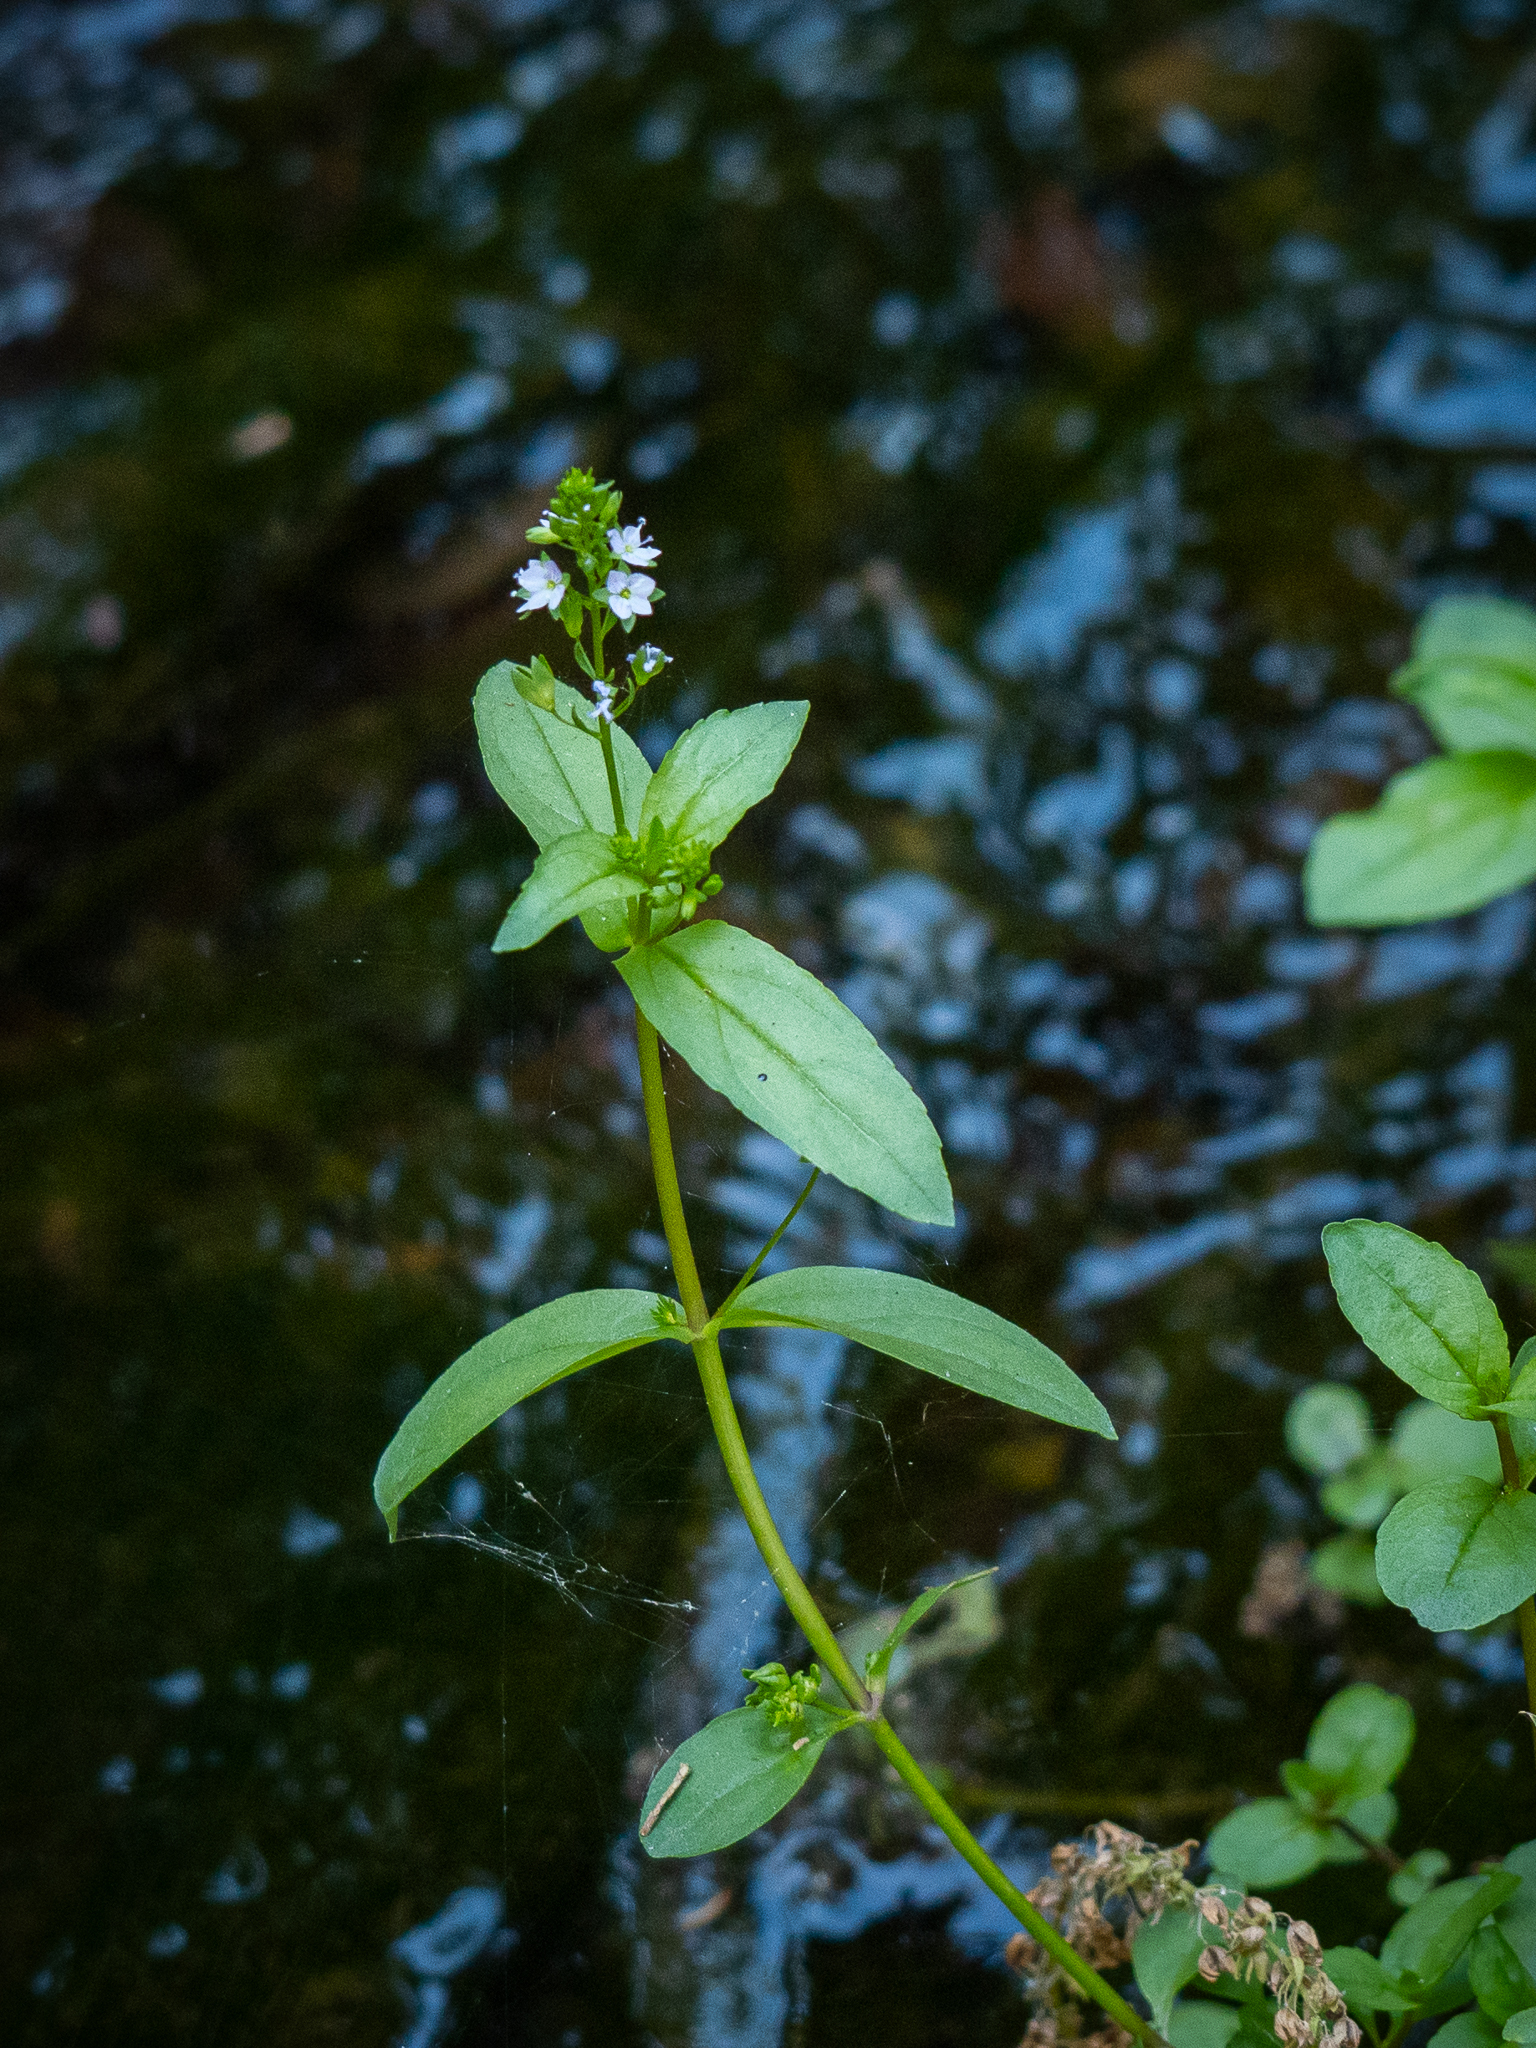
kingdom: Plantae
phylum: Tracheophyta
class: Magnoliopsida
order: Lamiales
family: Plantaginaceae
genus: Veronica
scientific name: Veronica anagallis-aquatica
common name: Water speedwell
